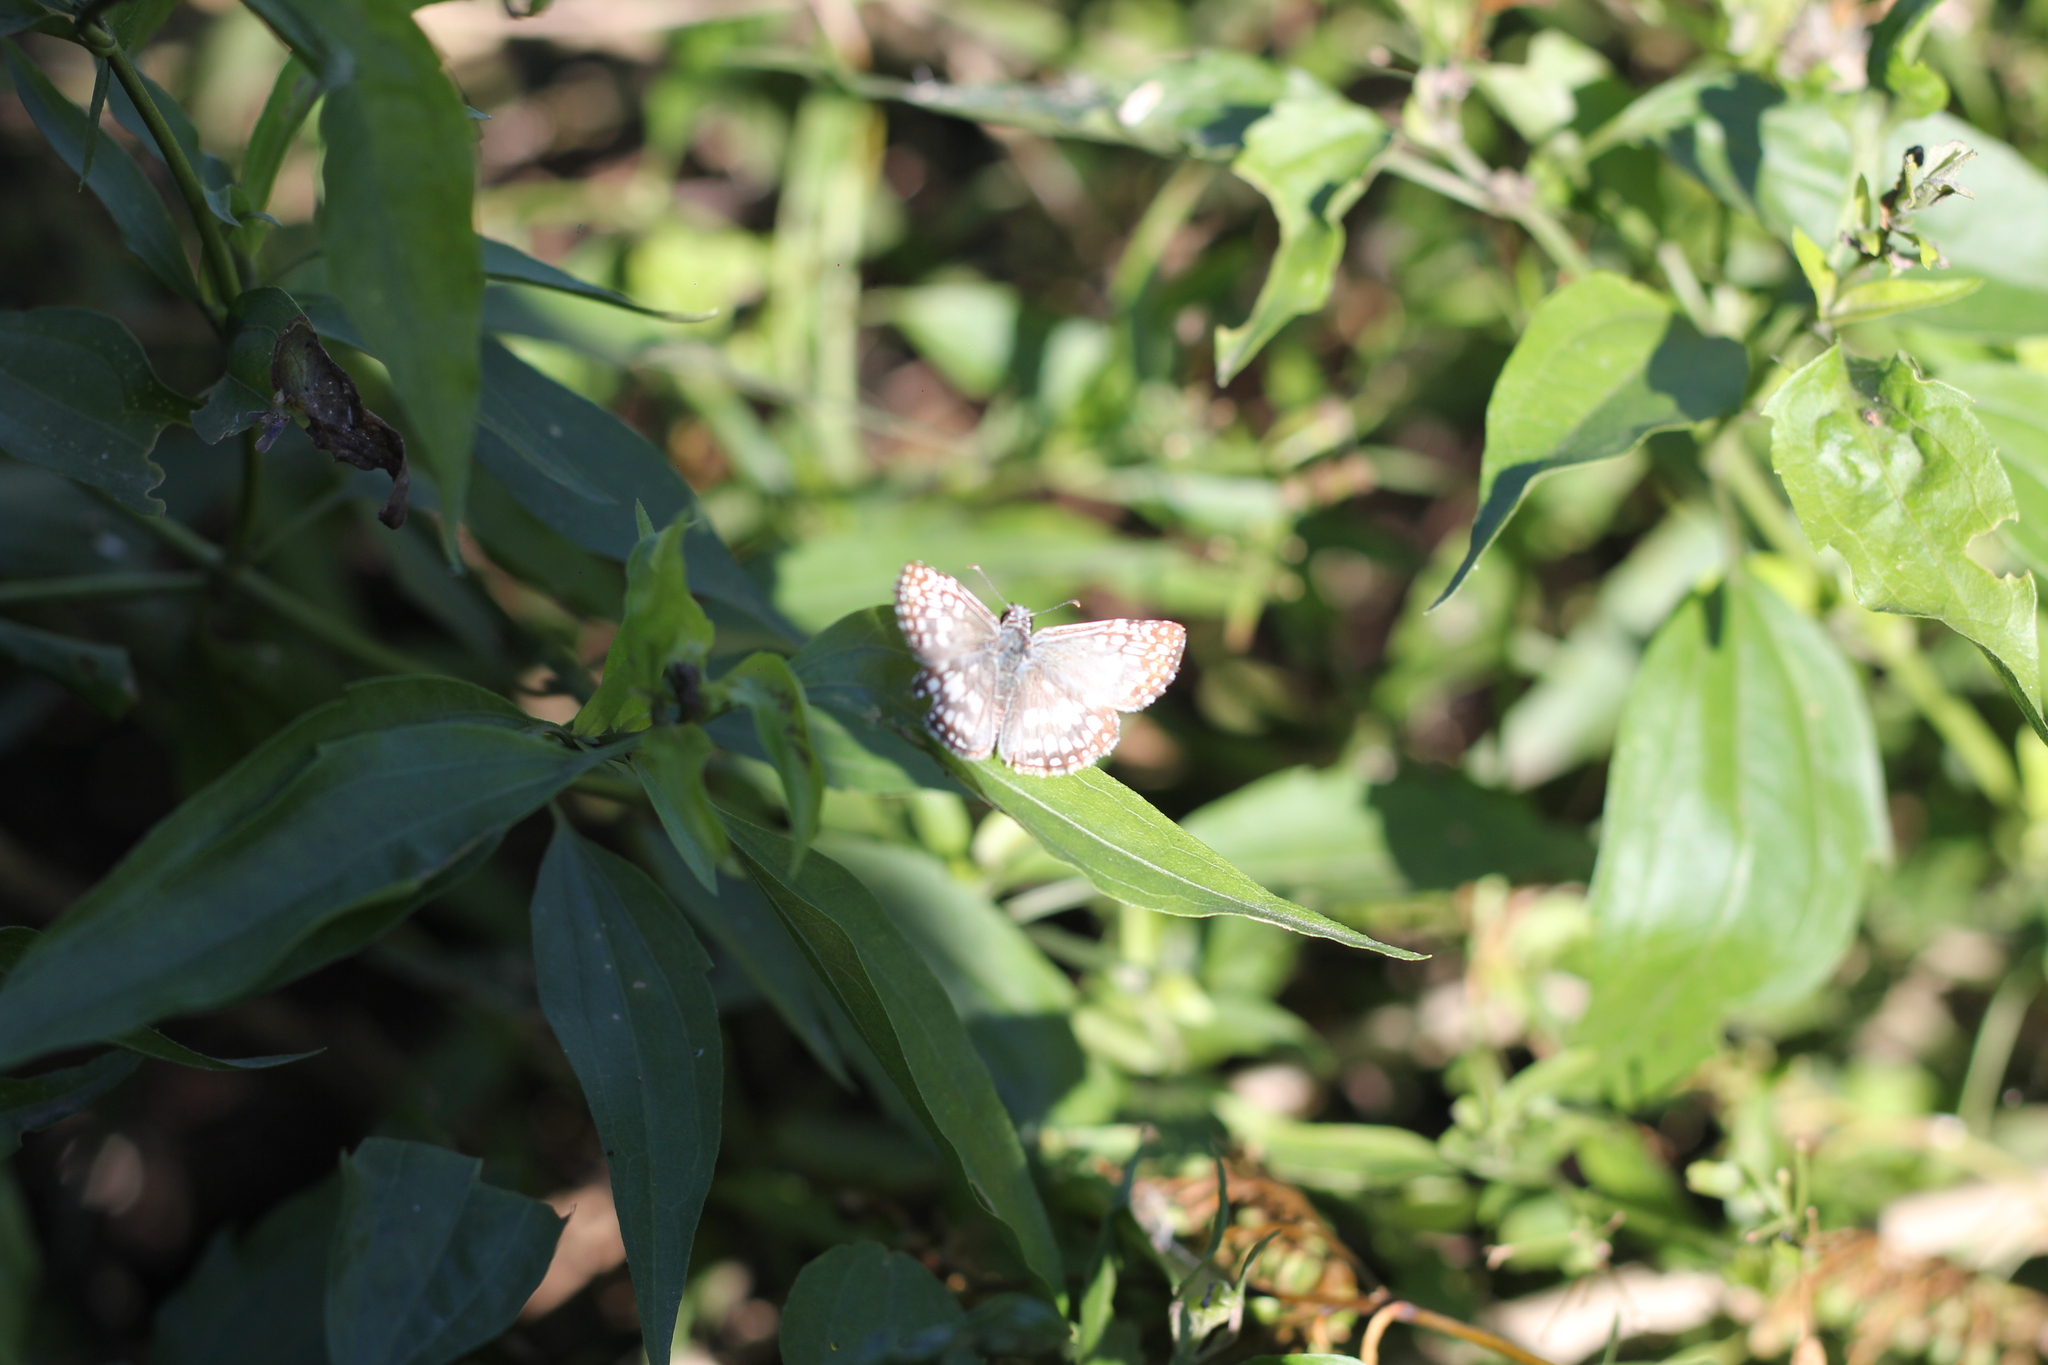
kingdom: Animalia
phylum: Arthropoda
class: Insecta
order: Lepidoptera
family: Hesperiidae
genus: Pyrgus
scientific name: Pyrgus oileus
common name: Tropical checkered-skipper
